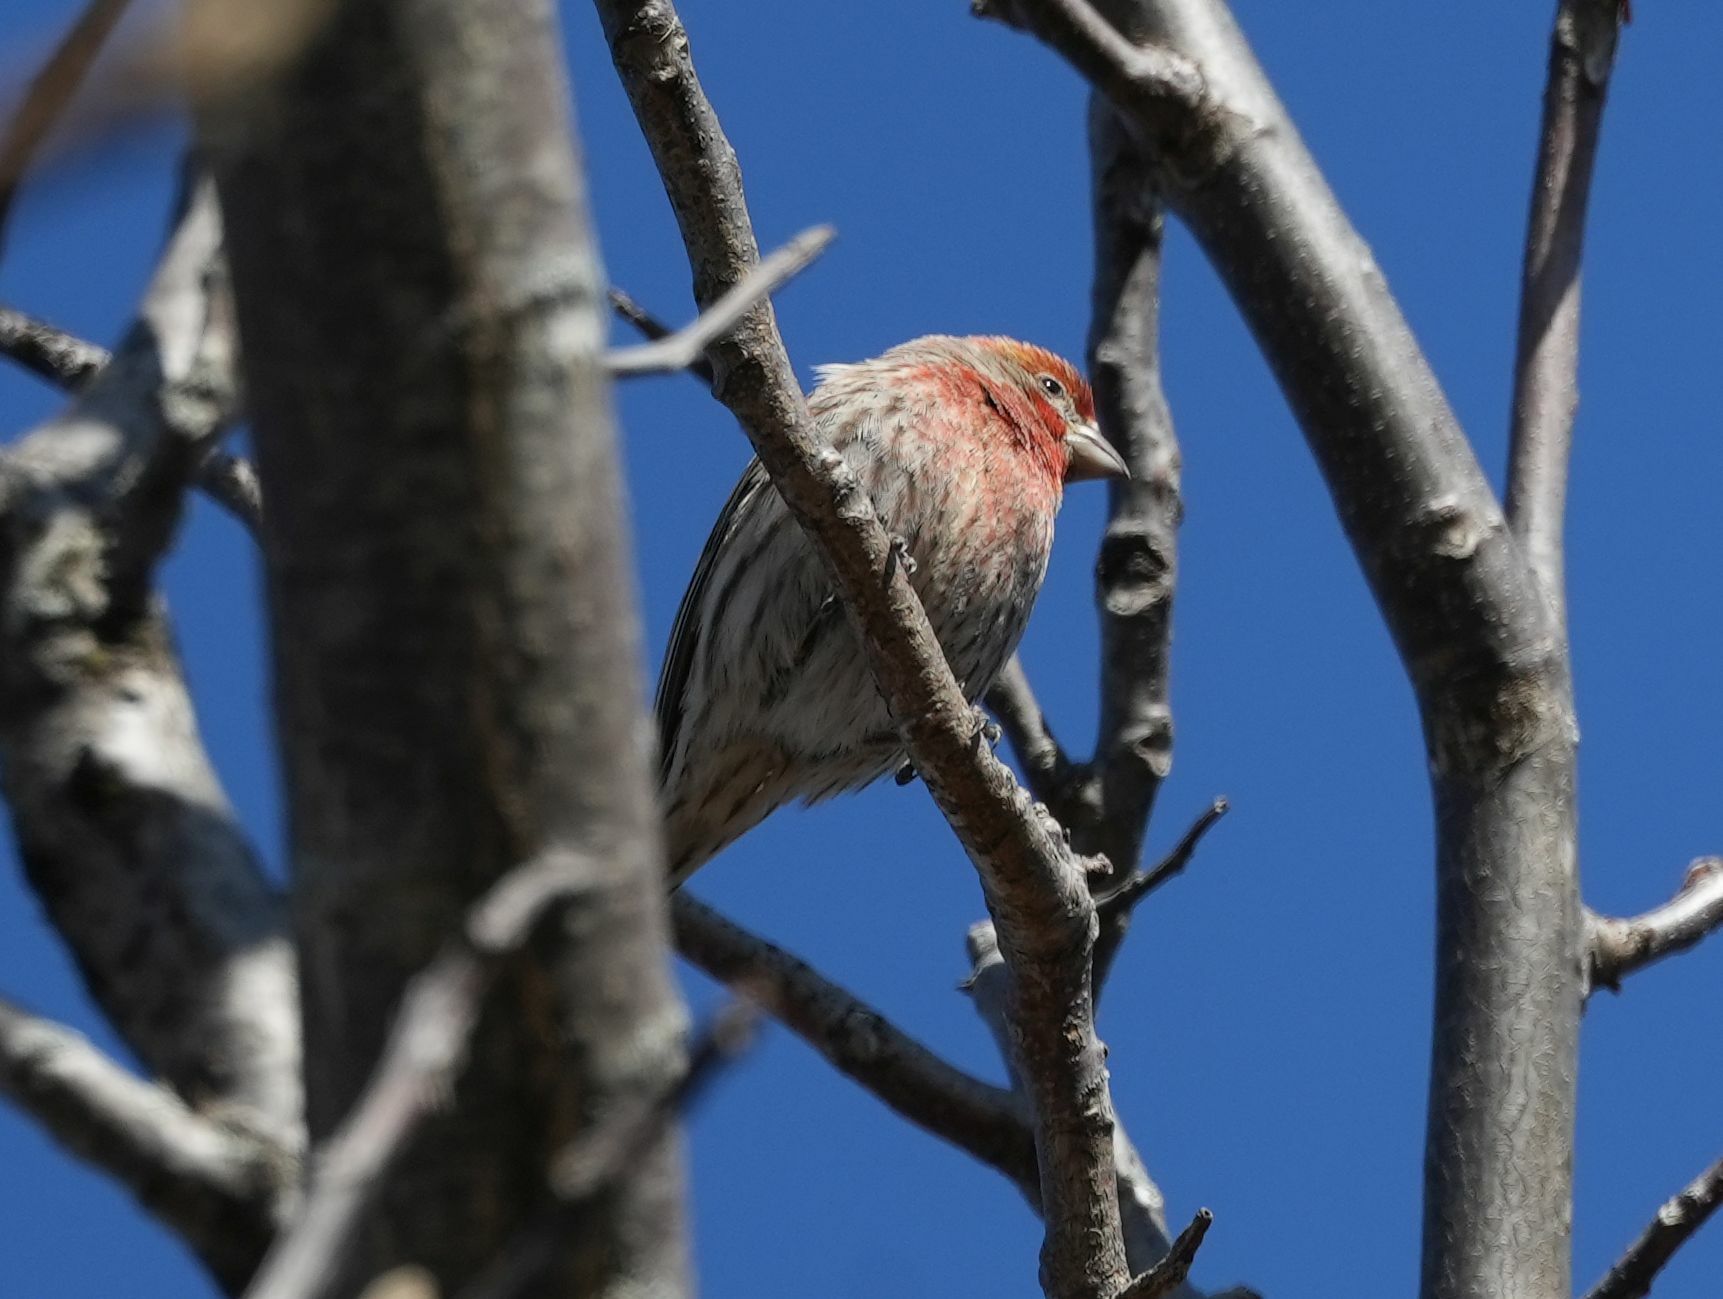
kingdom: Animalia
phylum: Chordata
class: Aves
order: Passeriformes
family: Fringillidae
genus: Haemorhous
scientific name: Haemorhous mexicanus
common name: House finch
